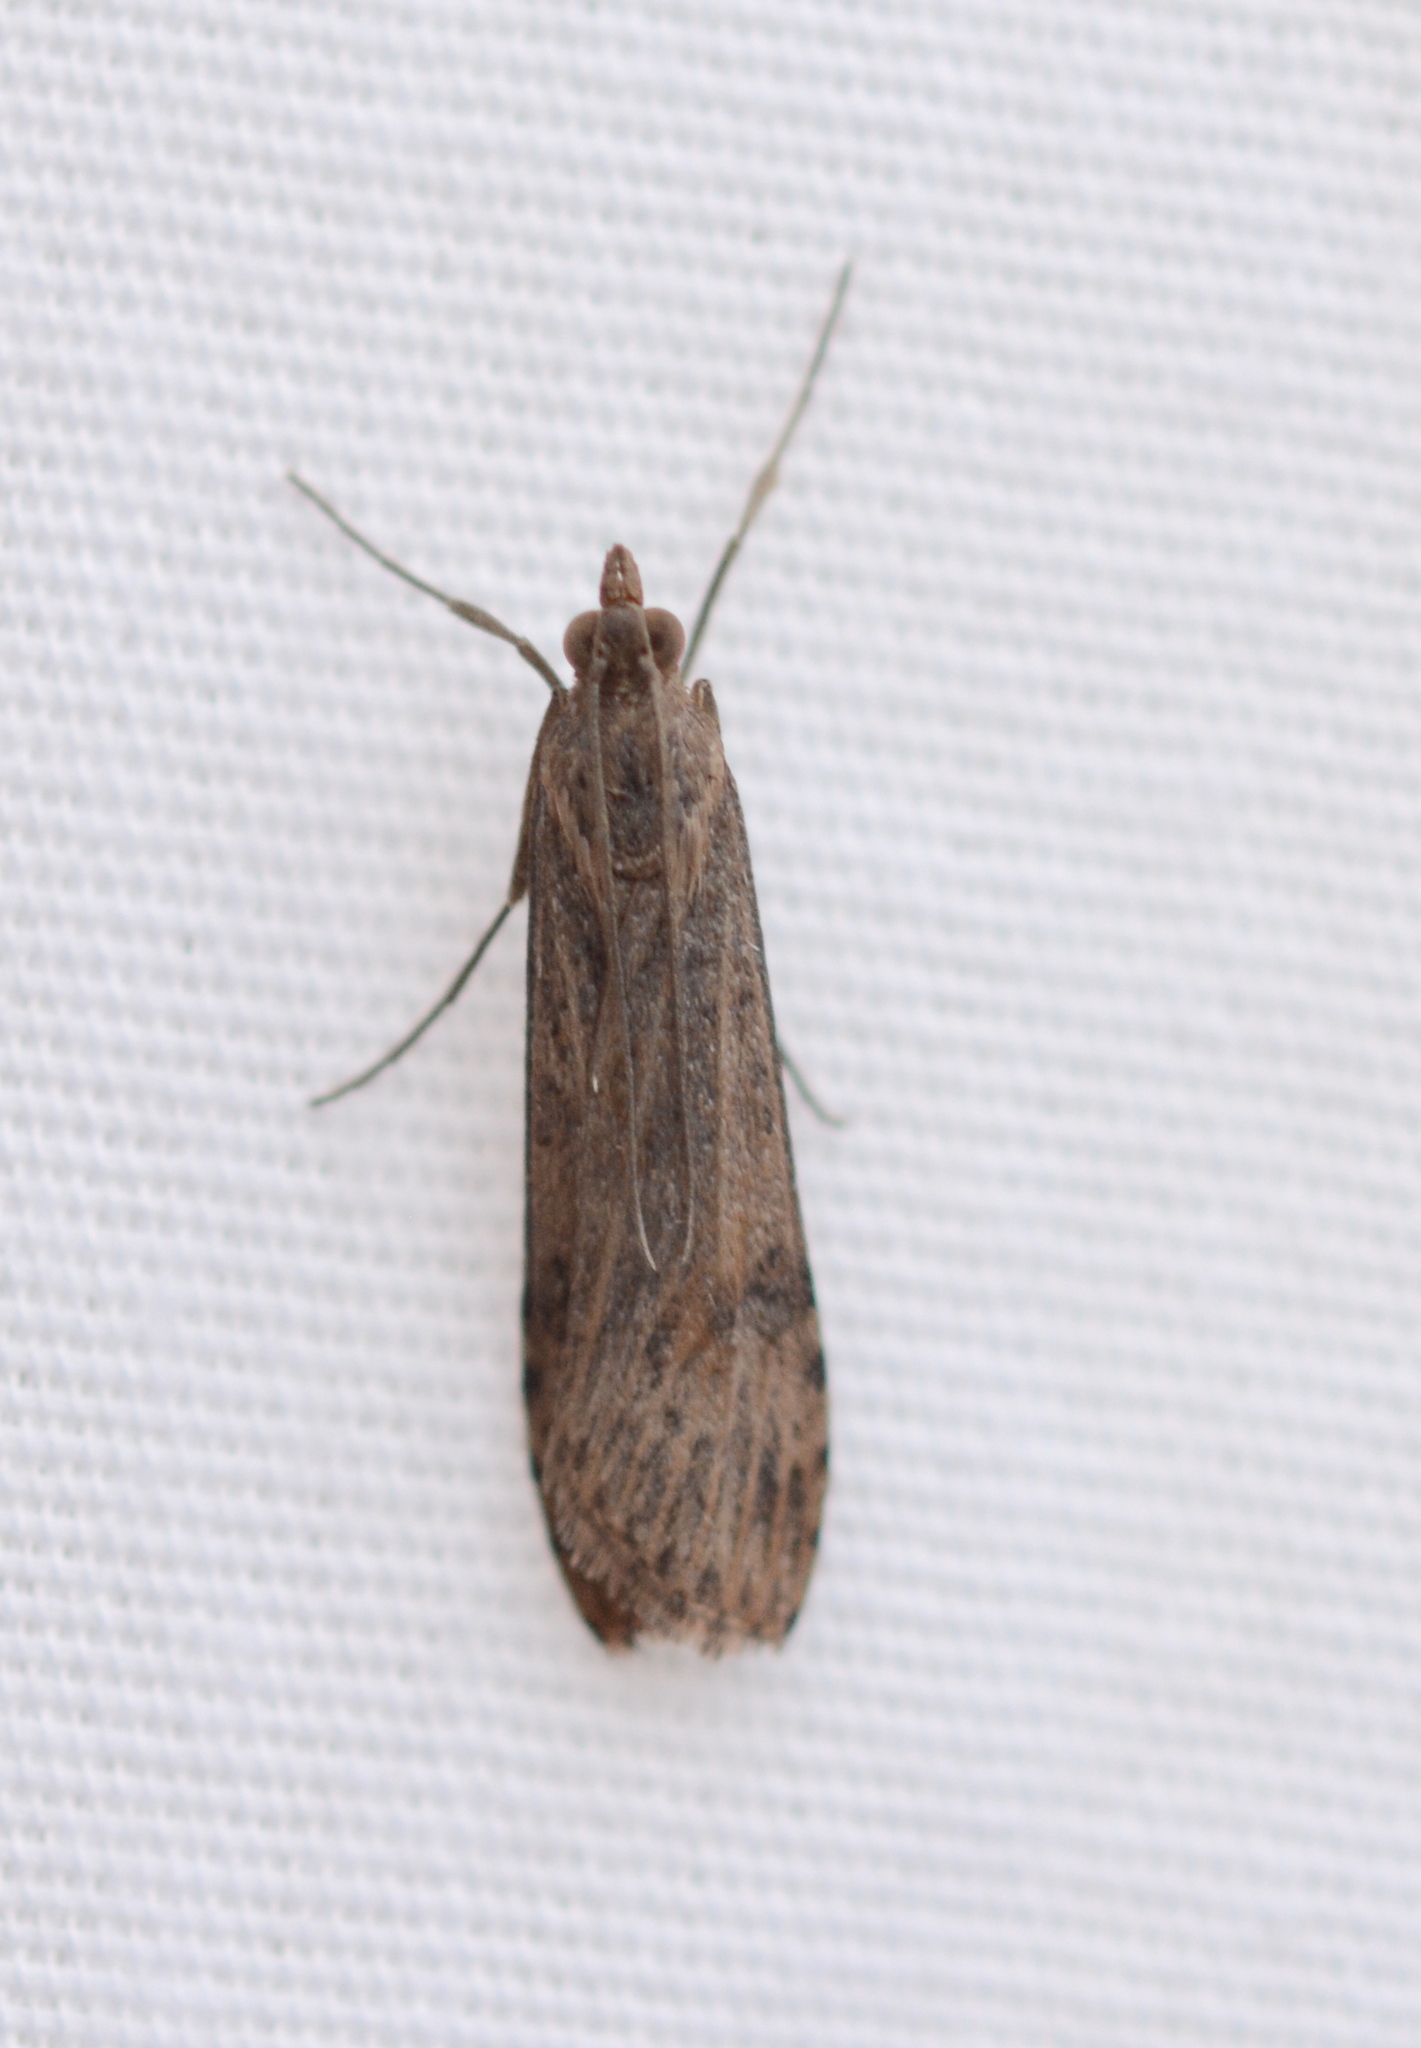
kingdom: Animalia
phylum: Arthropoda
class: Insecta
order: Lepidoptera
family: Crambidae
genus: Nomophila
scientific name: Nomophila nearctica
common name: American rush veneer
